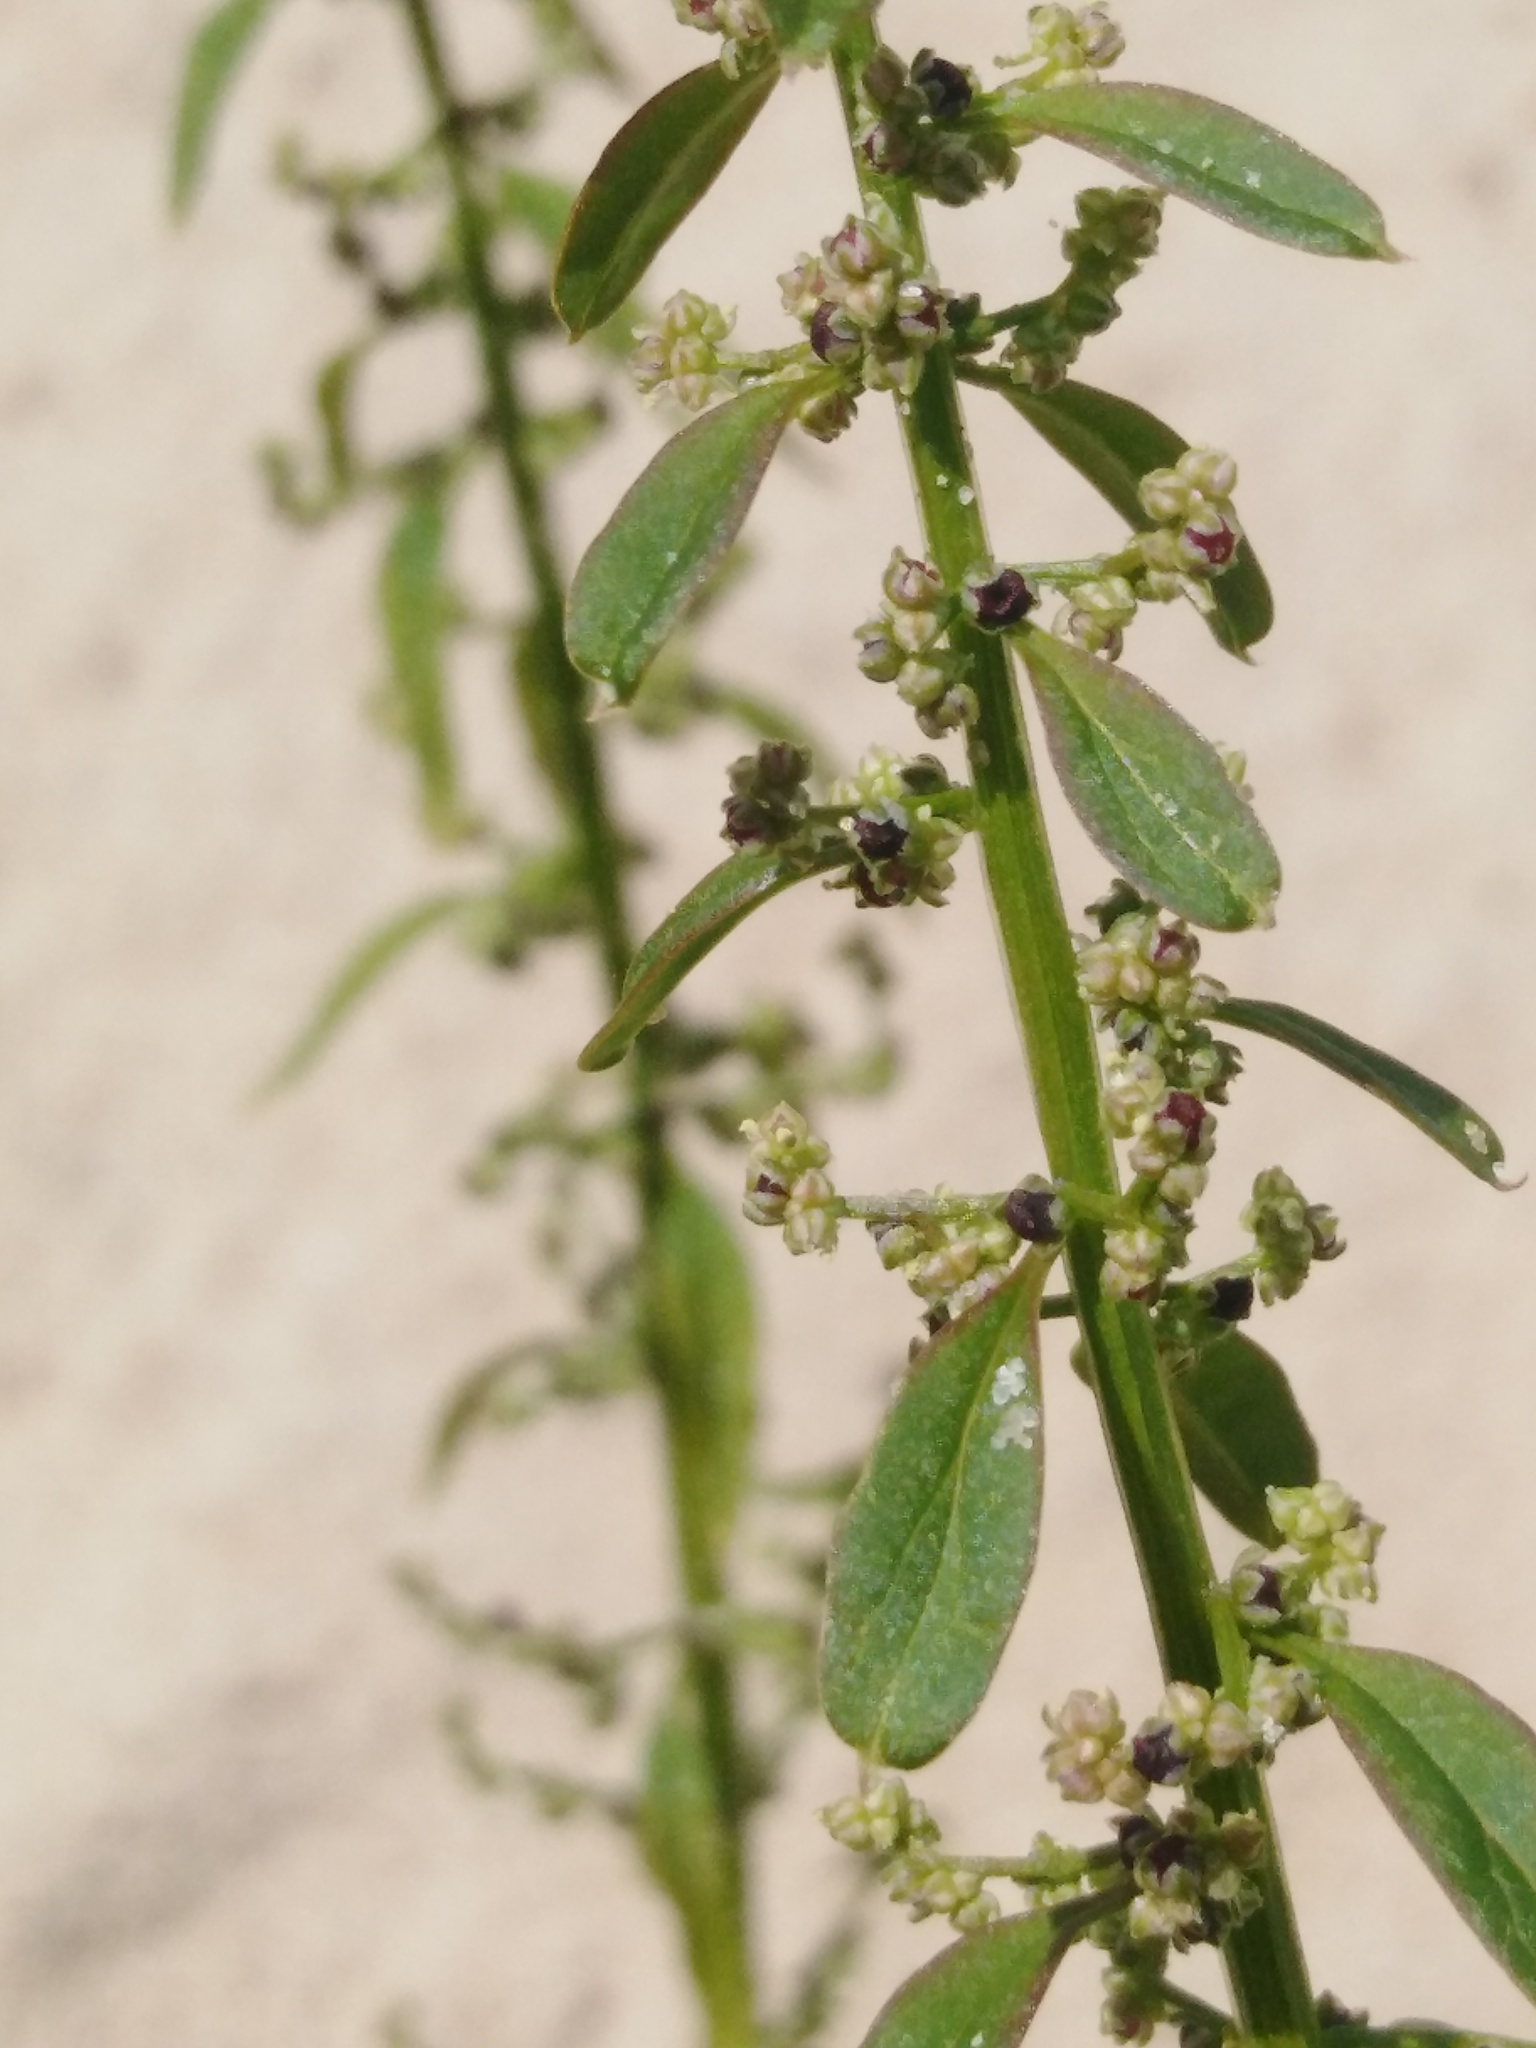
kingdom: Plantae
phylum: Tracheophyta
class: Magnoliopsida
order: Caryophyllales
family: Amaranthaceae
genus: Lipandra
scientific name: Lipandra polysperma
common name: Many-seed goosefoot
